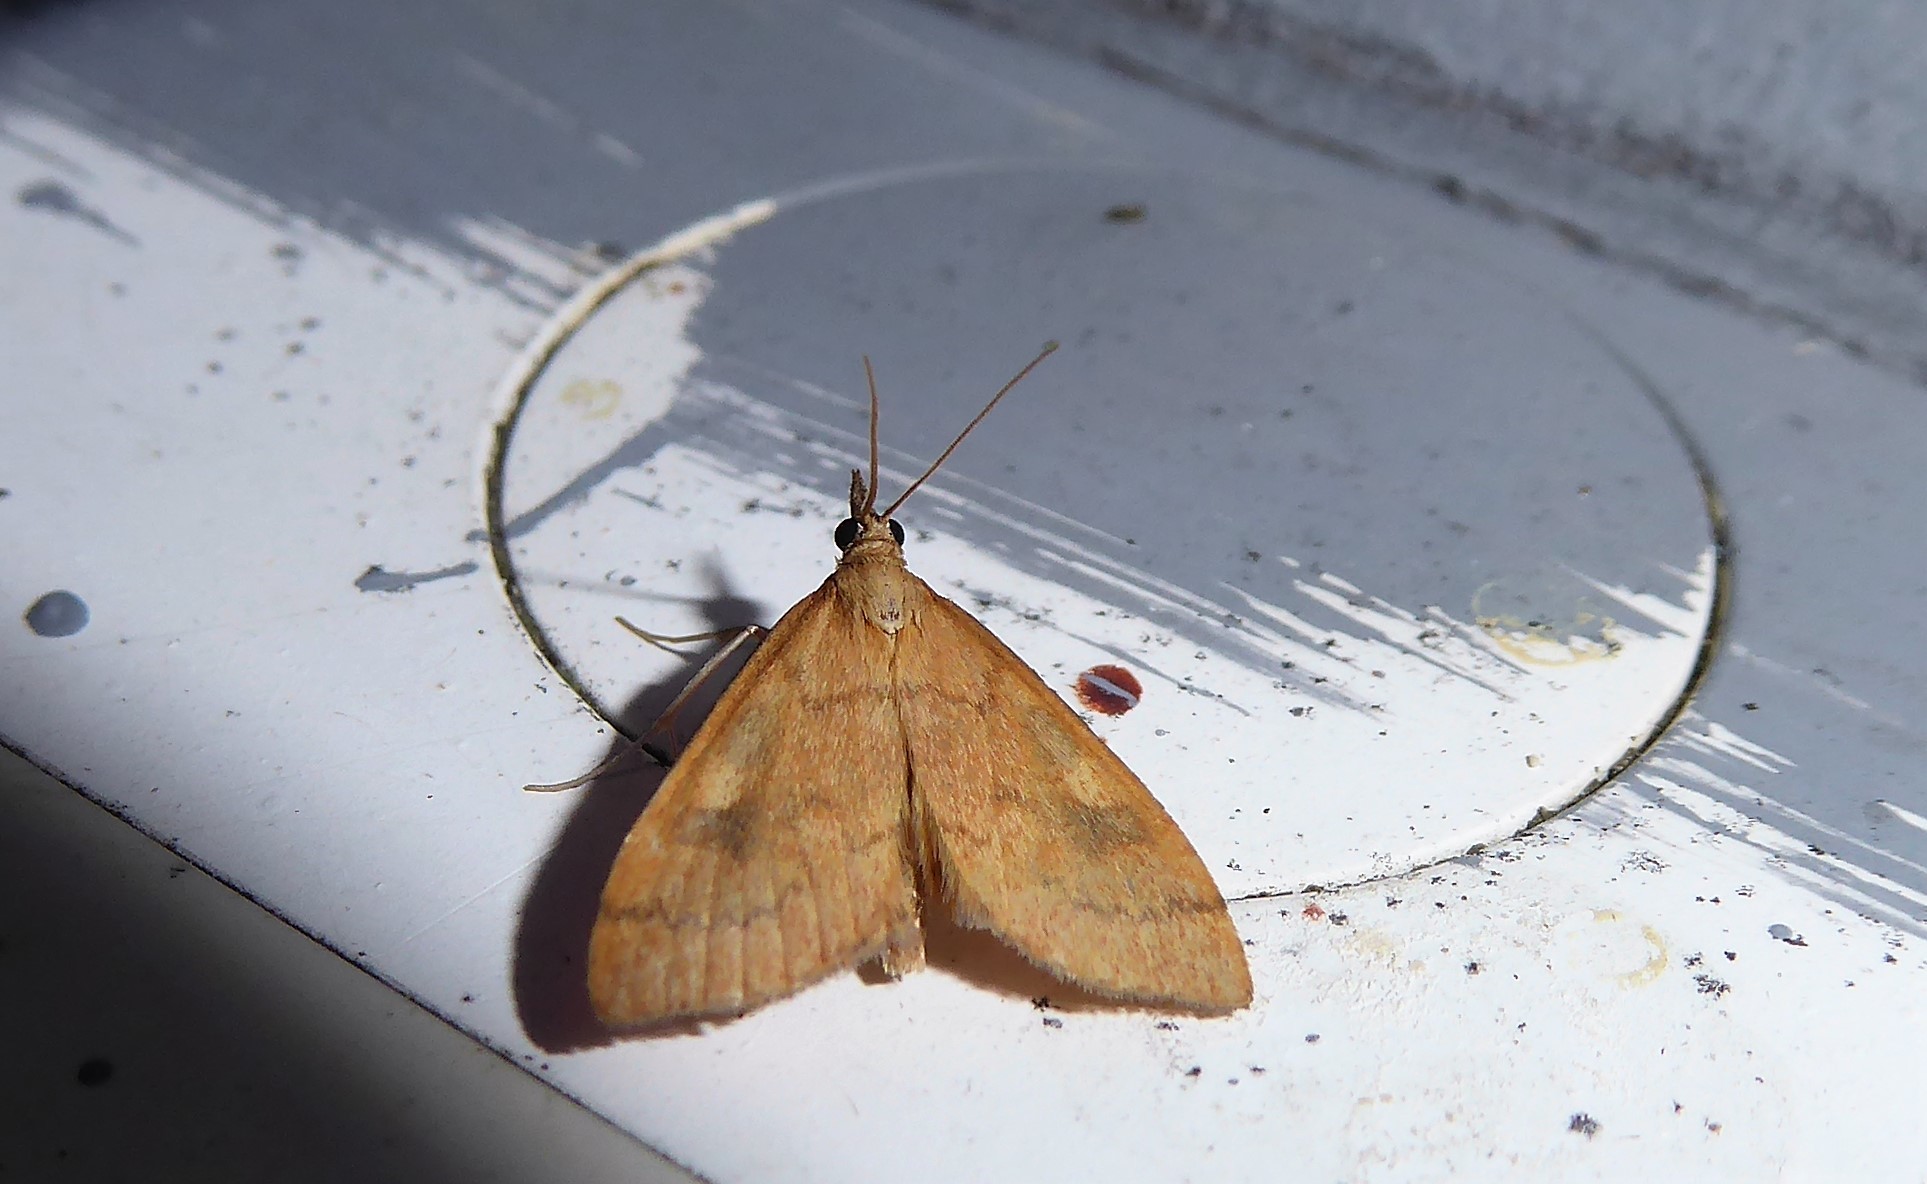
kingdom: Animalia
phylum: Arthropoda
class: Insecta
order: Lepidoptera
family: Crambidae
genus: Udea
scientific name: Udea Mnesictena flavidalis
